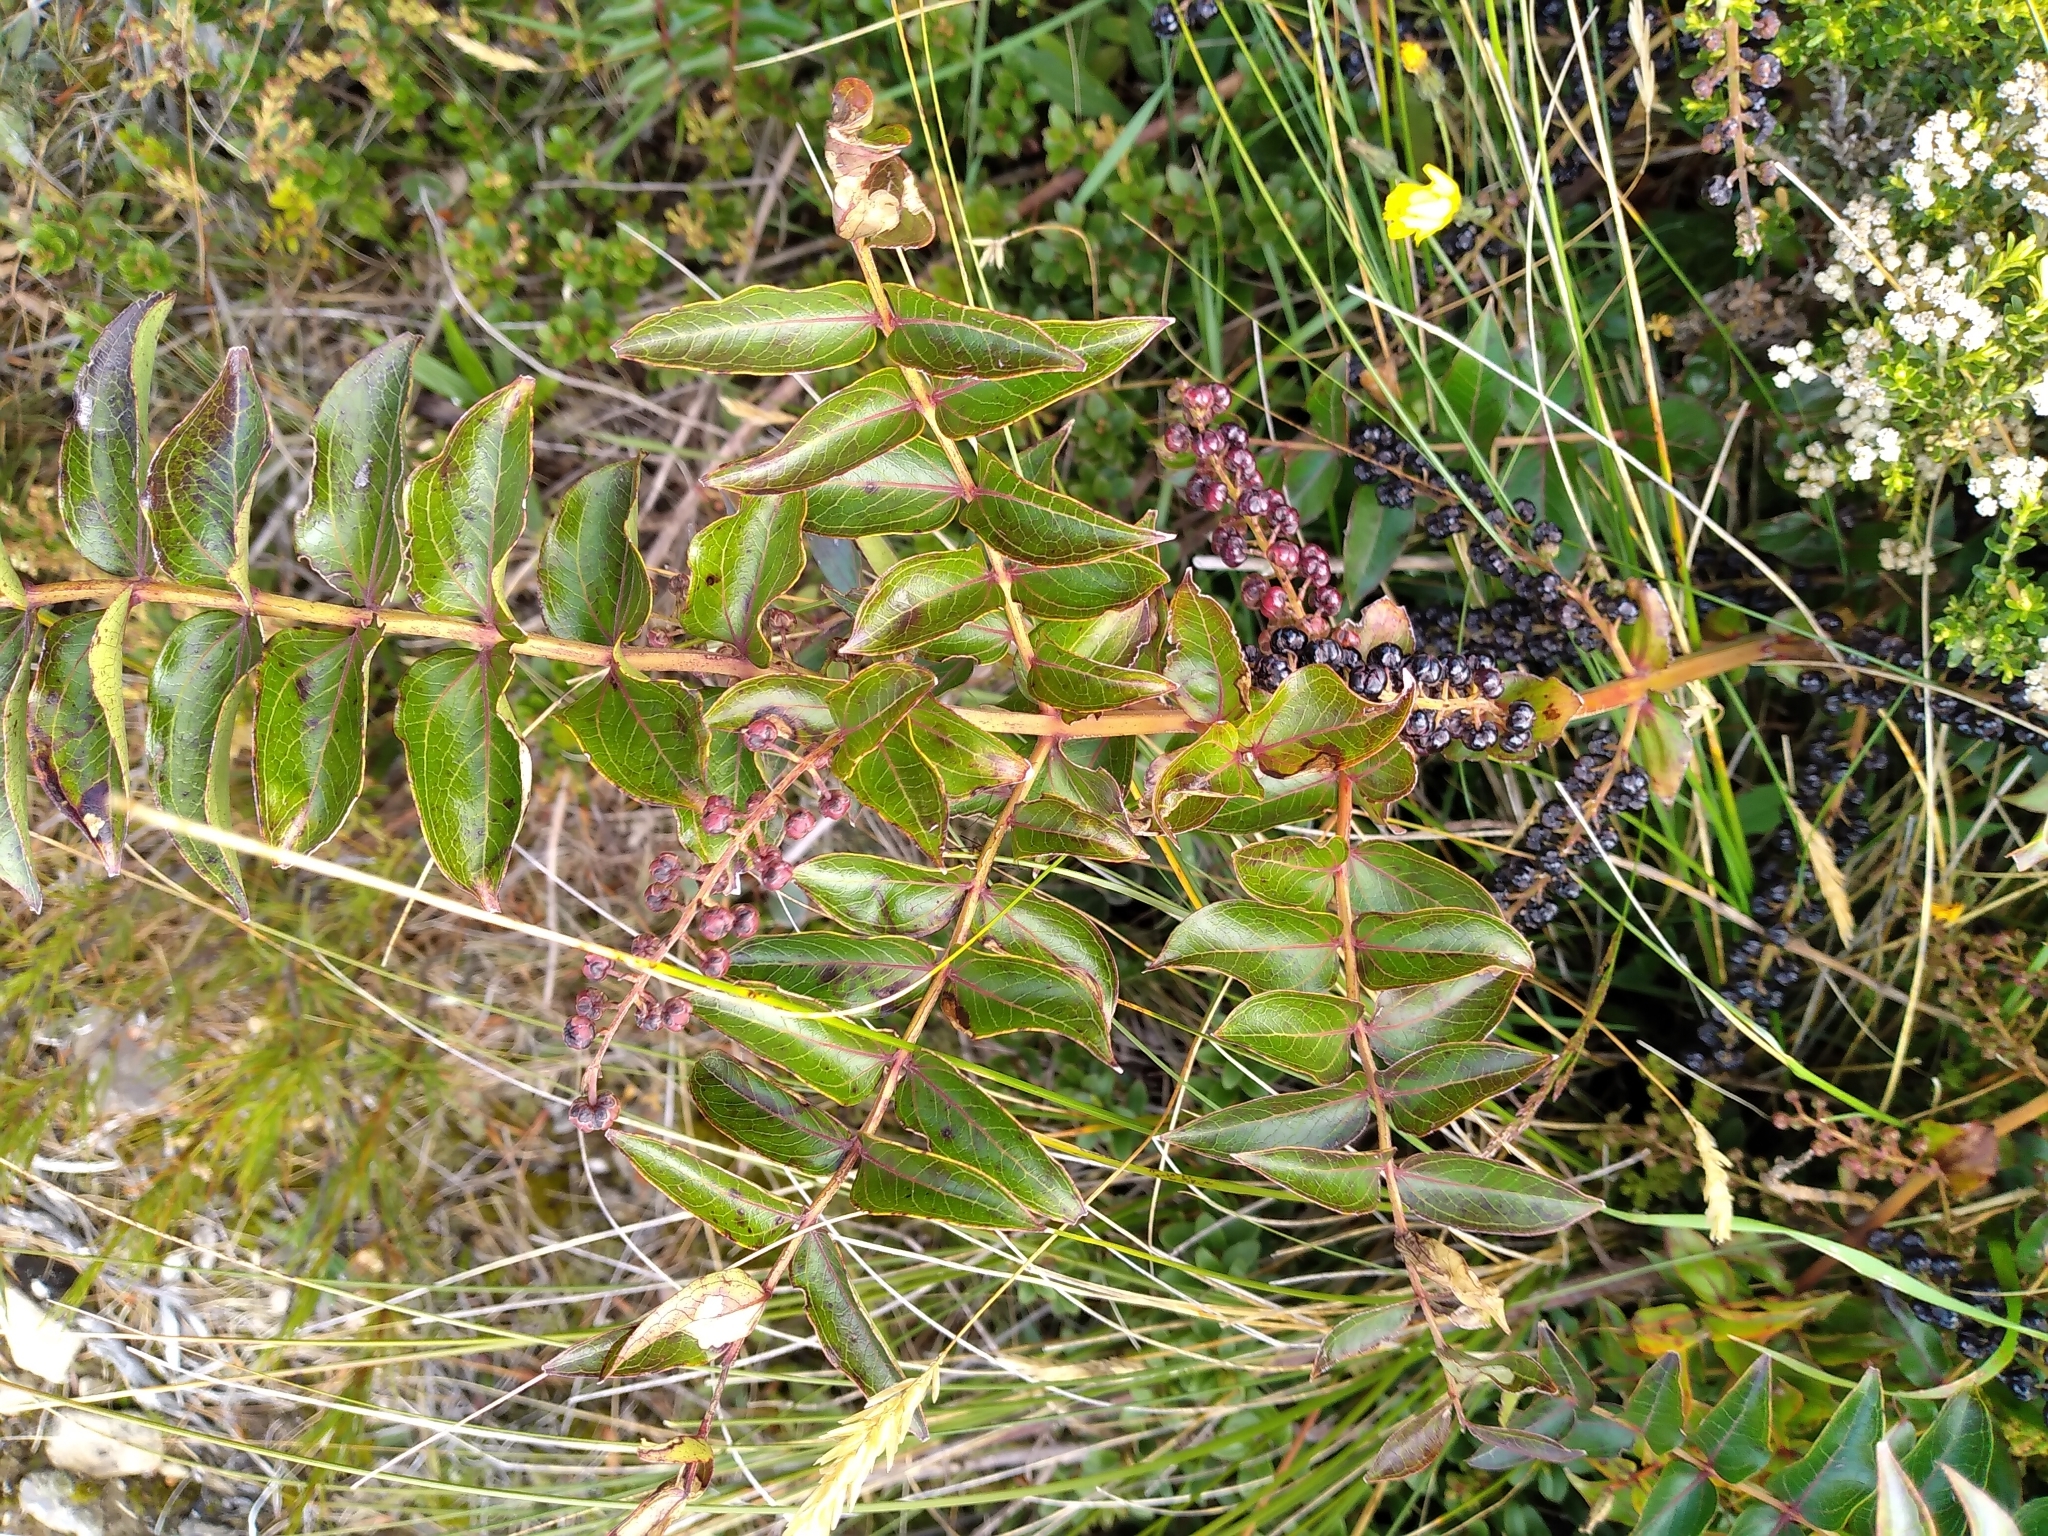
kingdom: Plantae
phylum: Tracheophyta
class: Magnoliopsida
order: Cucurbitales
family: Coriariaceae
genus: Coriaria
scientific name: Coriaria sarmentosa
